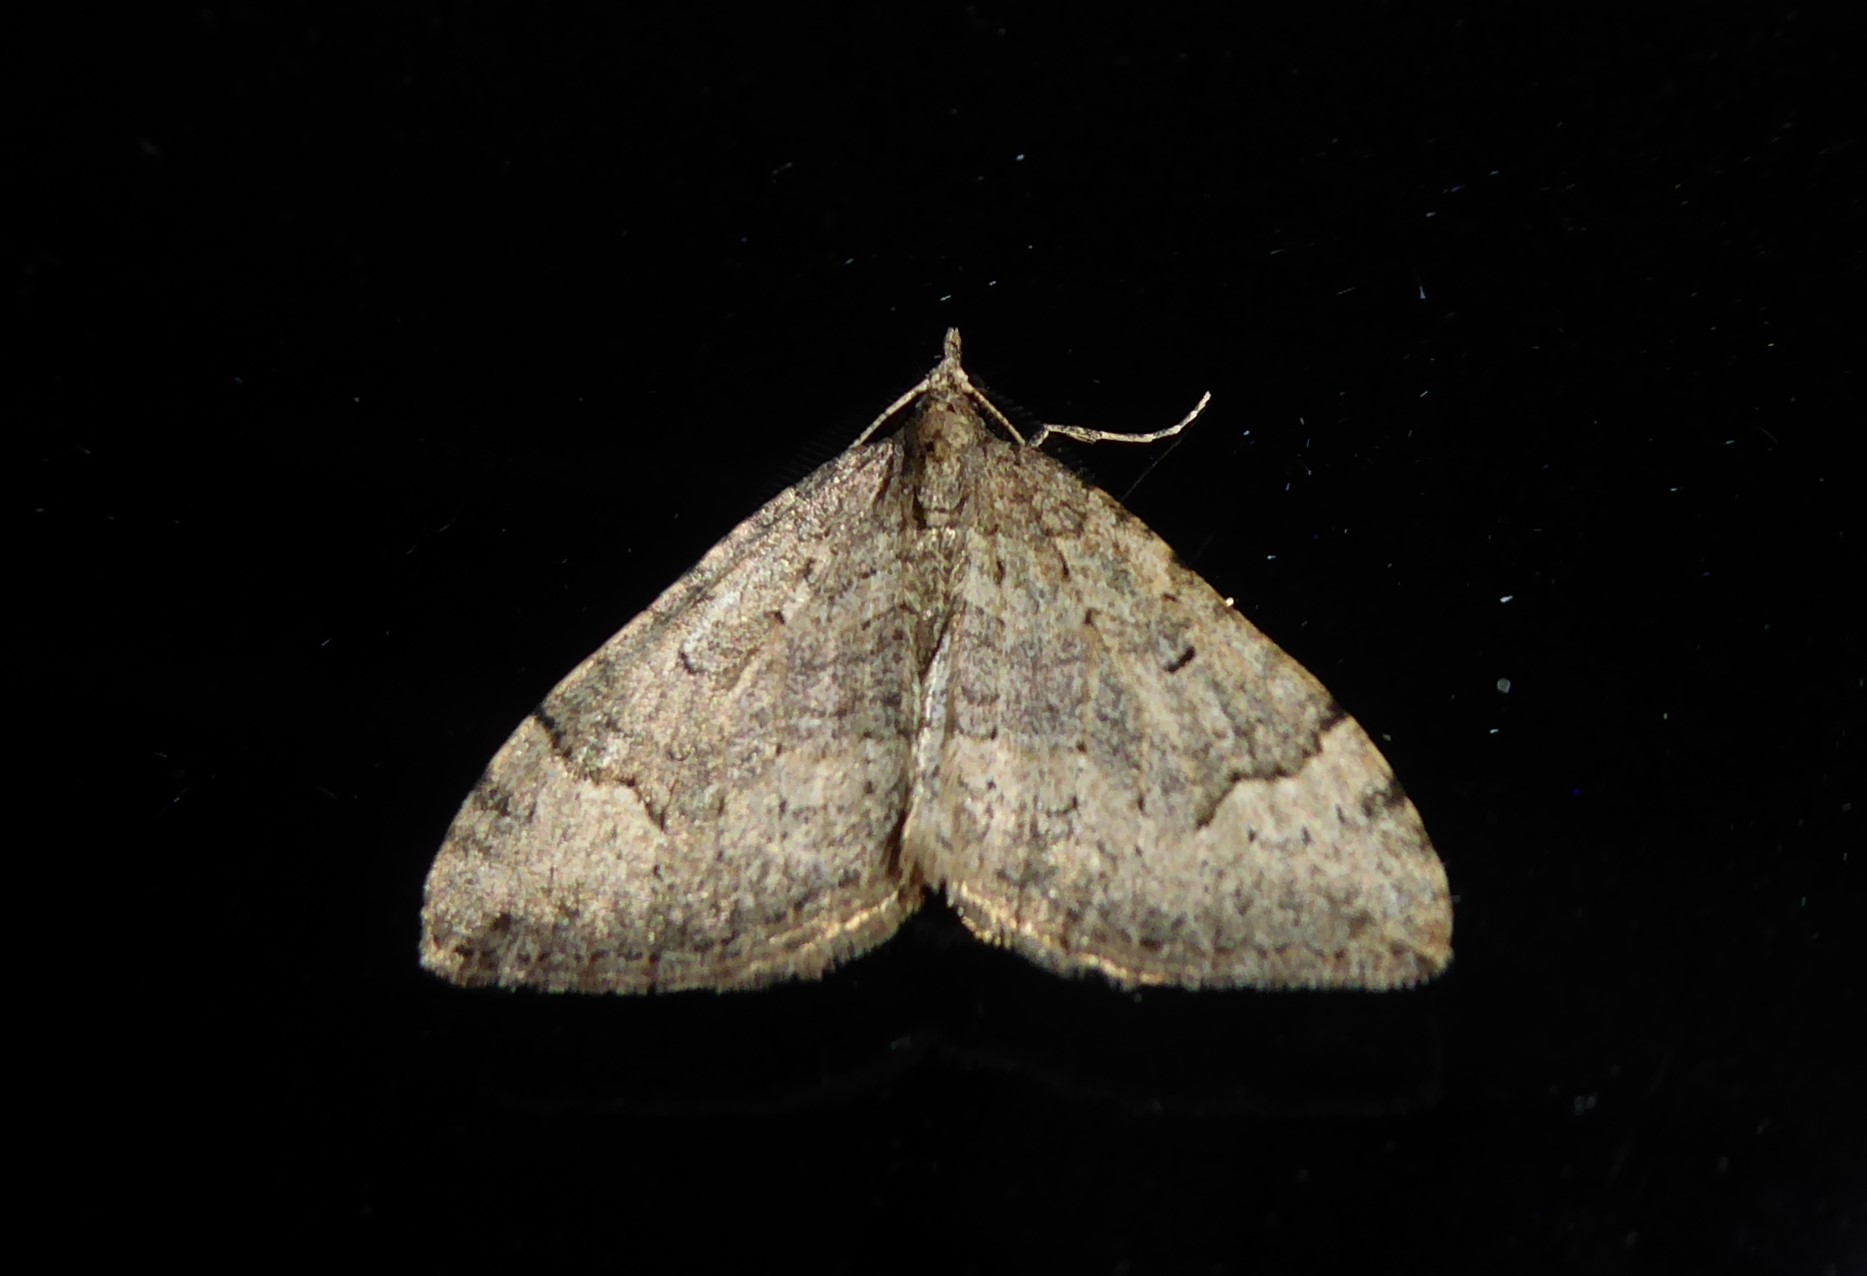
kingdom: Animalia
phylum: Arthropoda
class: Insecta
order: Lepidoptera
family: Geometridae
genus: Epyaxa
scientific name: Epyaxa rosearia
